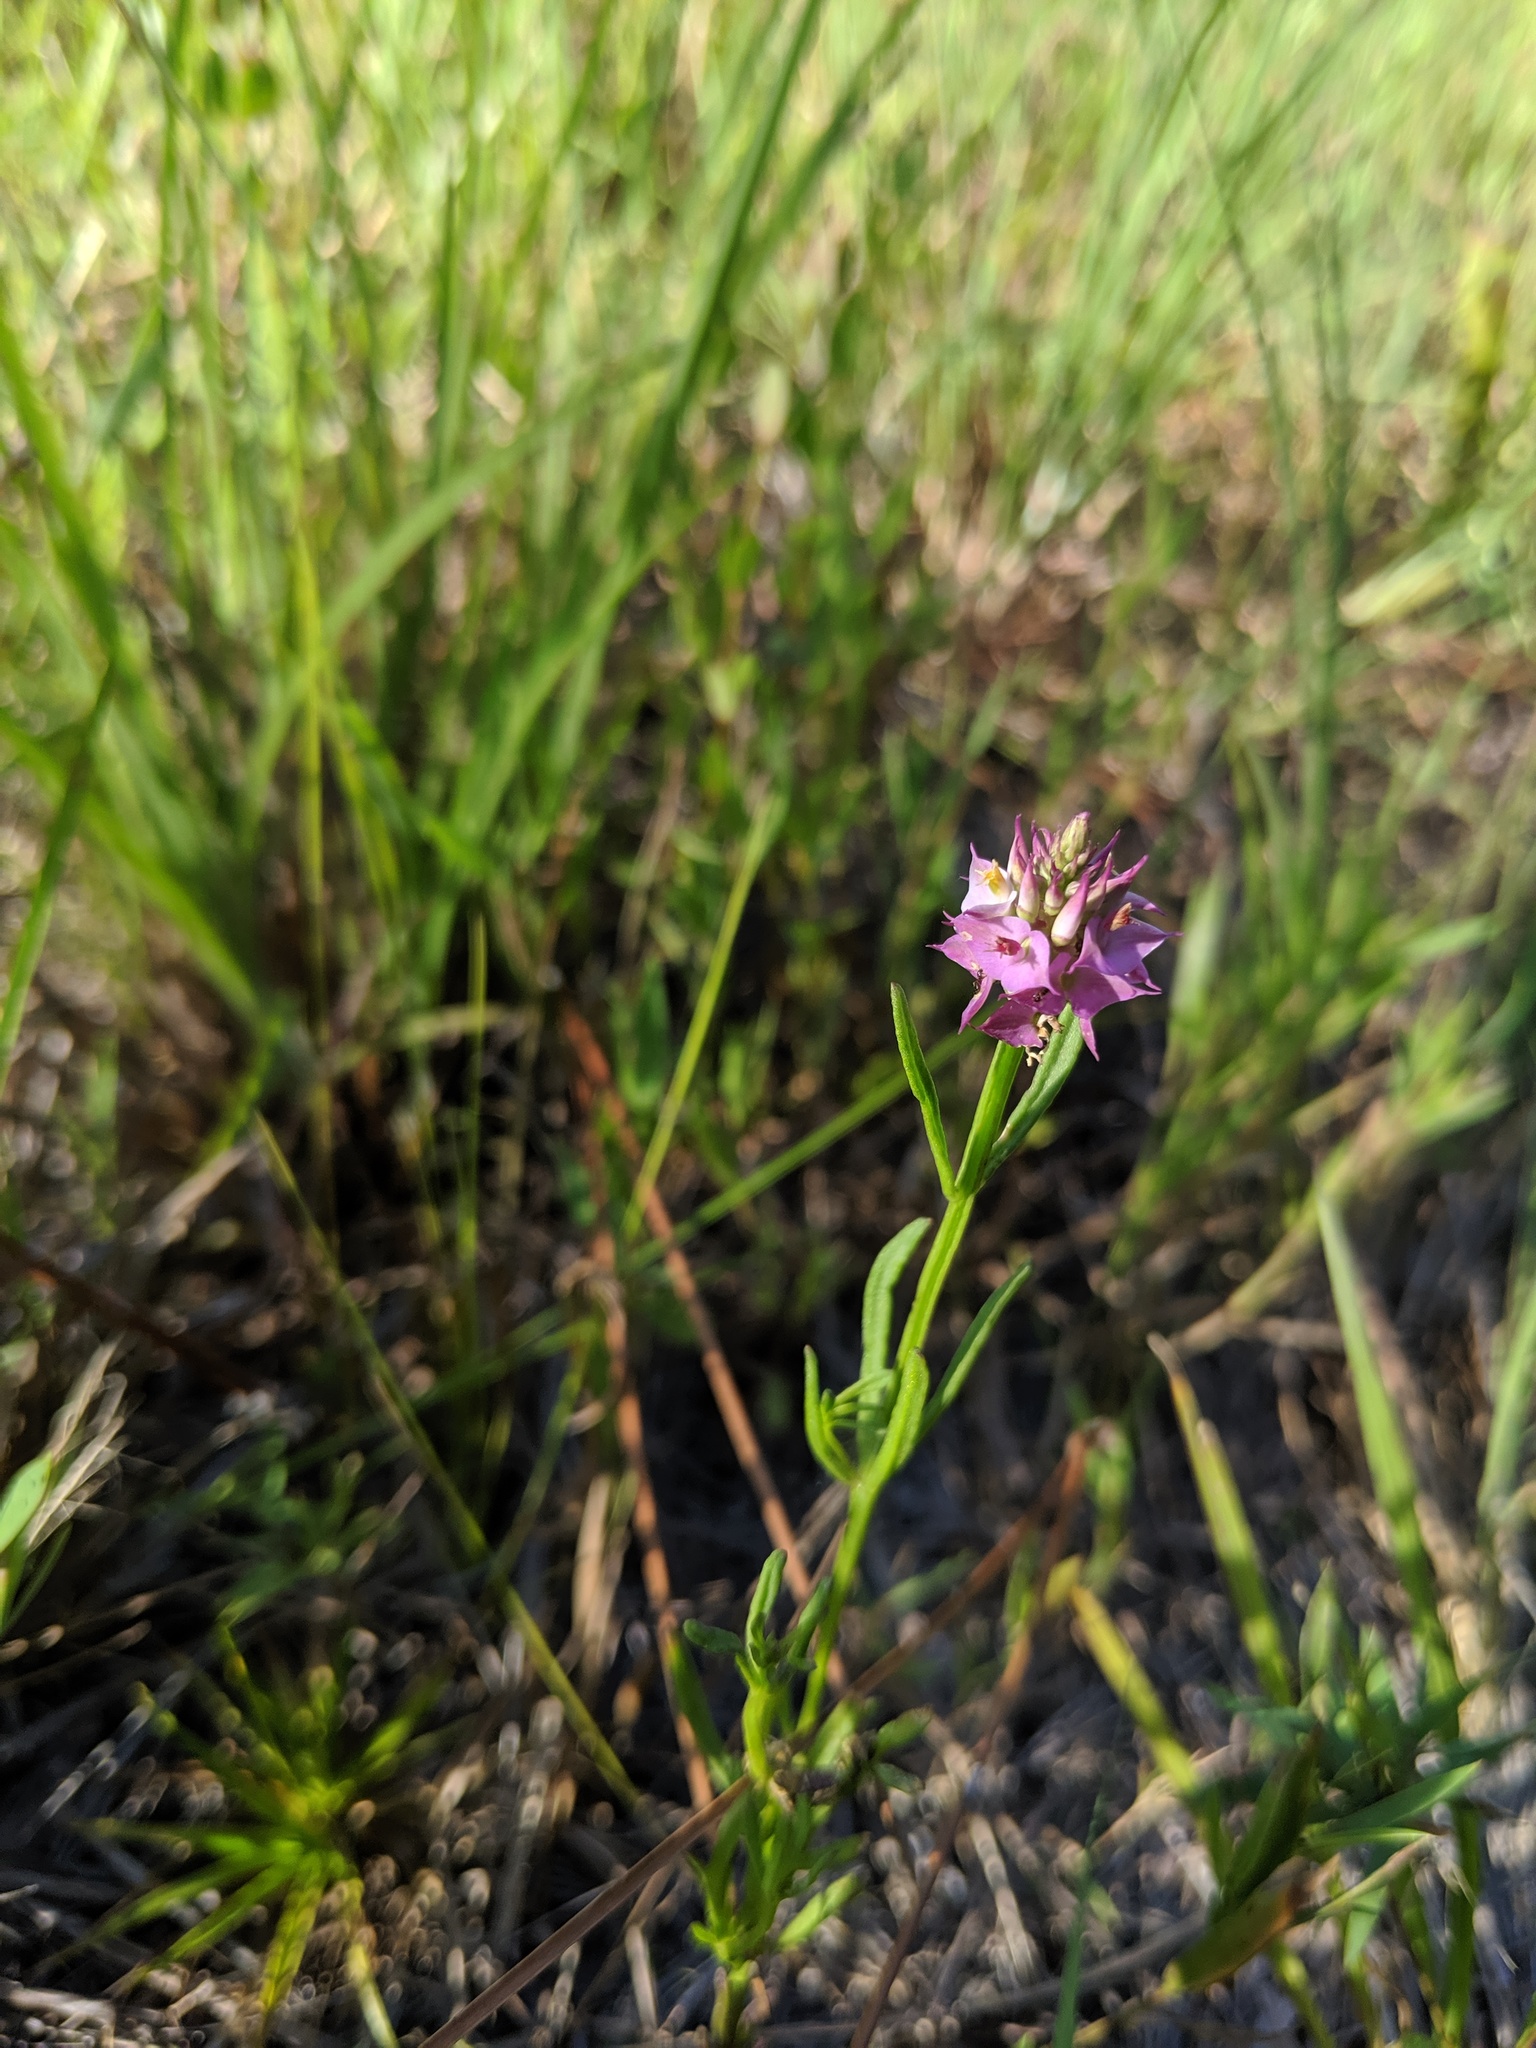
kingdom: Plantae
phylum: Tracheophyta
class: Magnoliopsida
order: Fabales
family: Polygalaceae
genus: Polygala
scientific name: Polygala cruciata
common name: Drumheads
